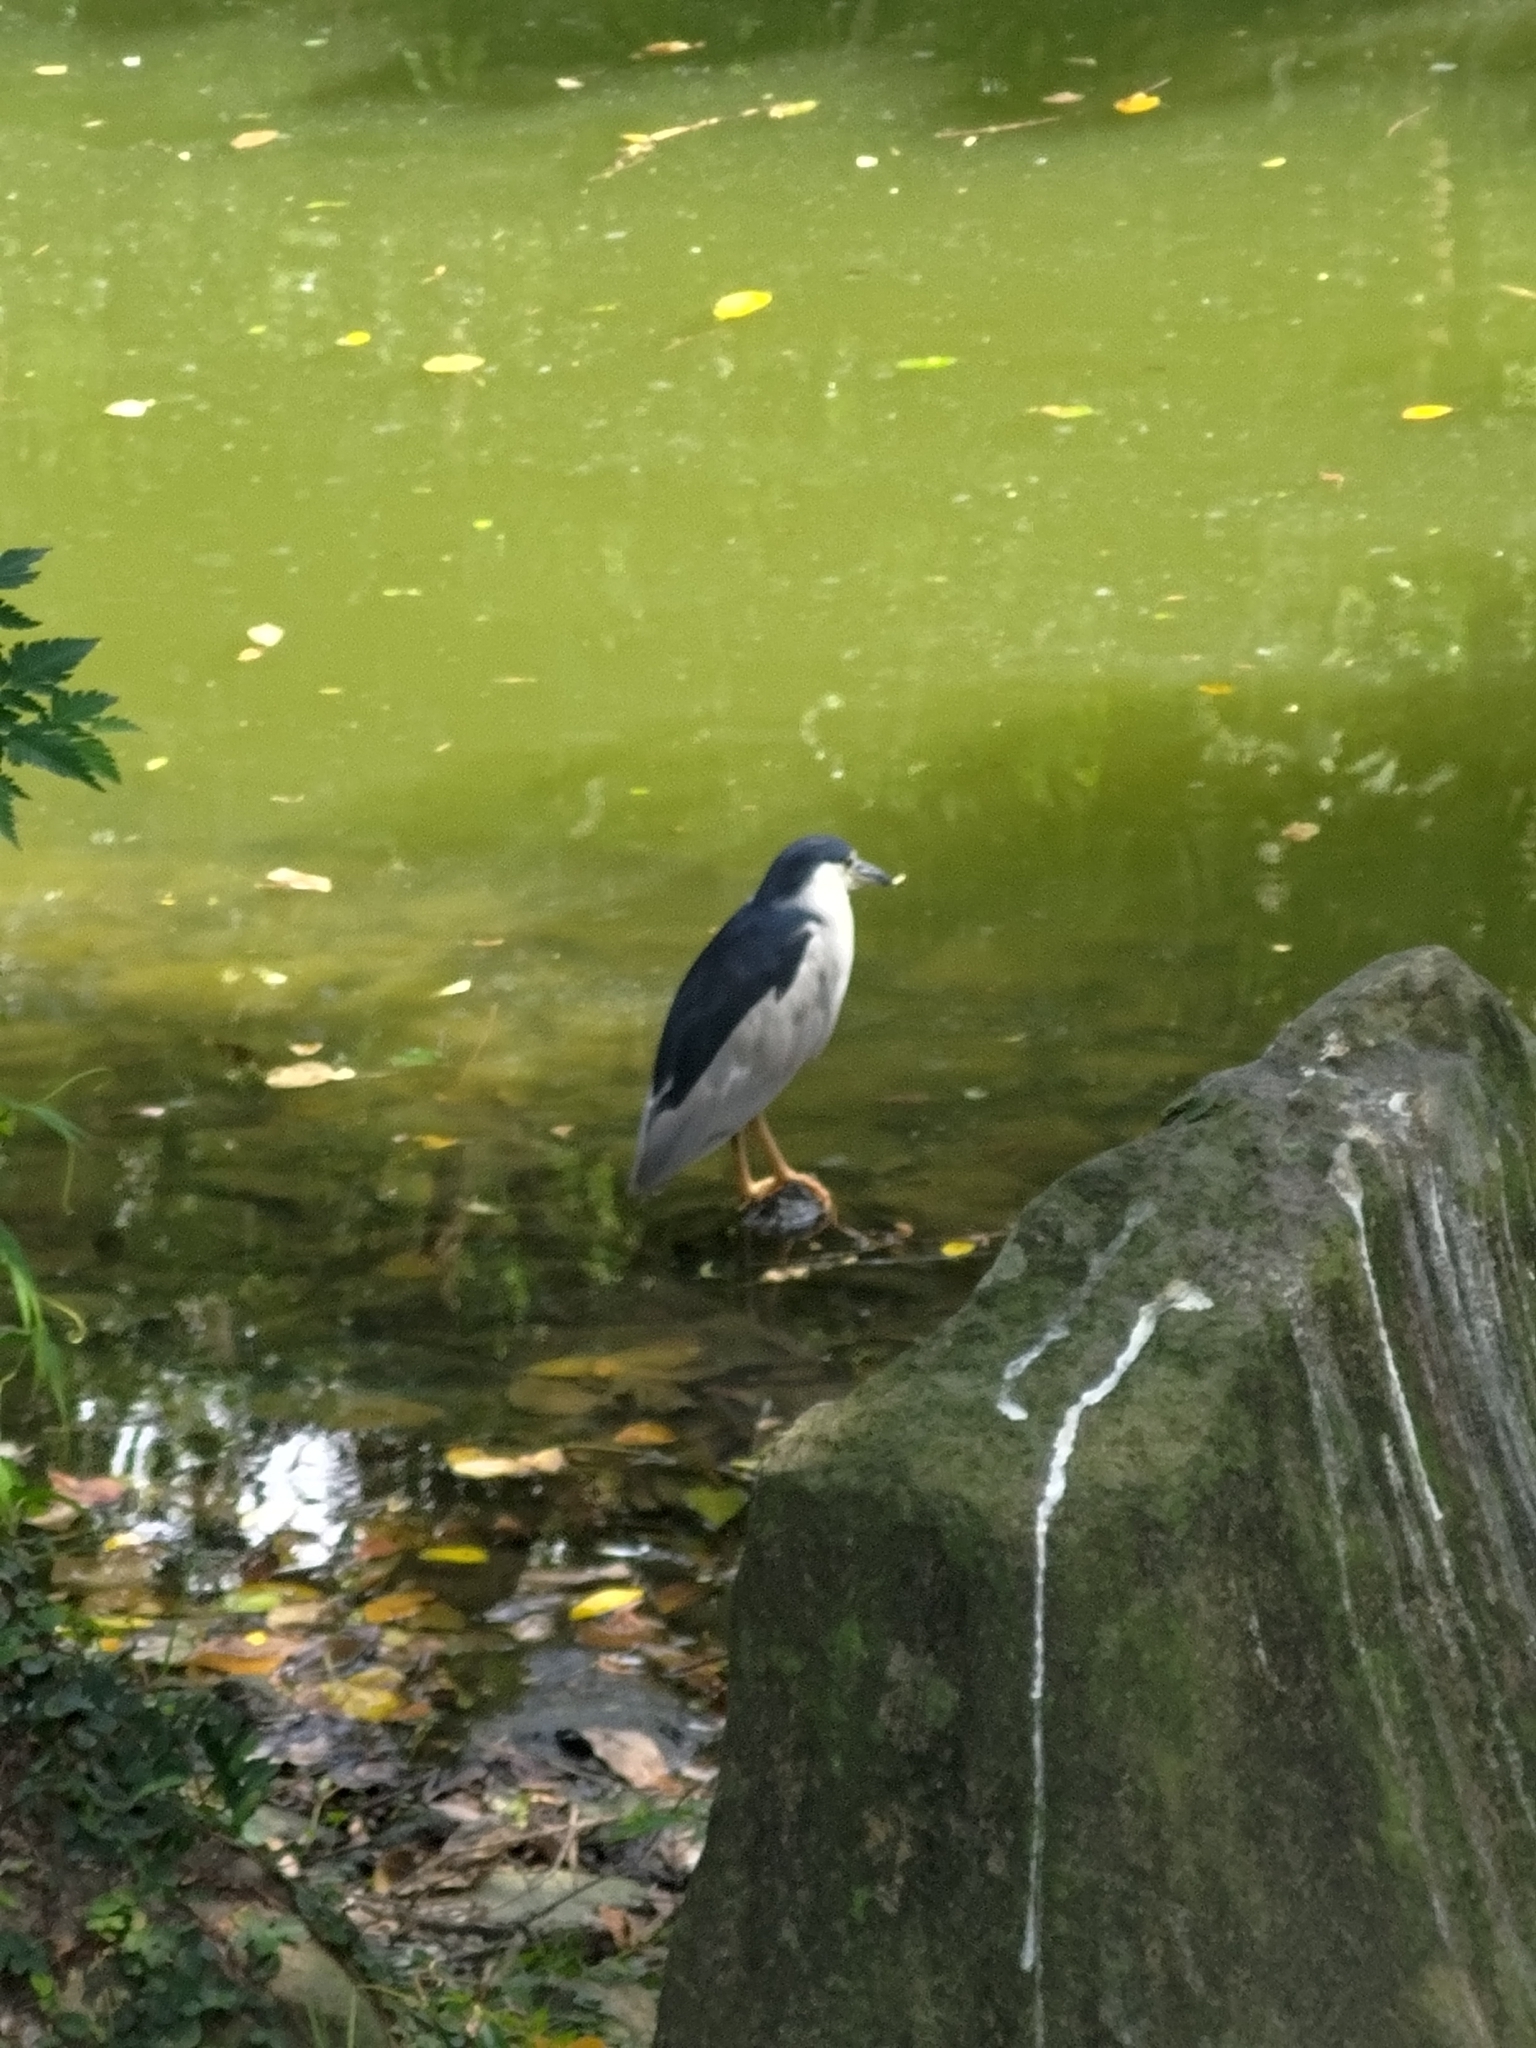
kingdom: Animalia
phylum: Chordata
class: Aves
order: Pelecaniformes
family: Ardeidae
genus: Nycticorax
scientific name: Nycticorax nycticorax
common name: Black-crowned night heron
